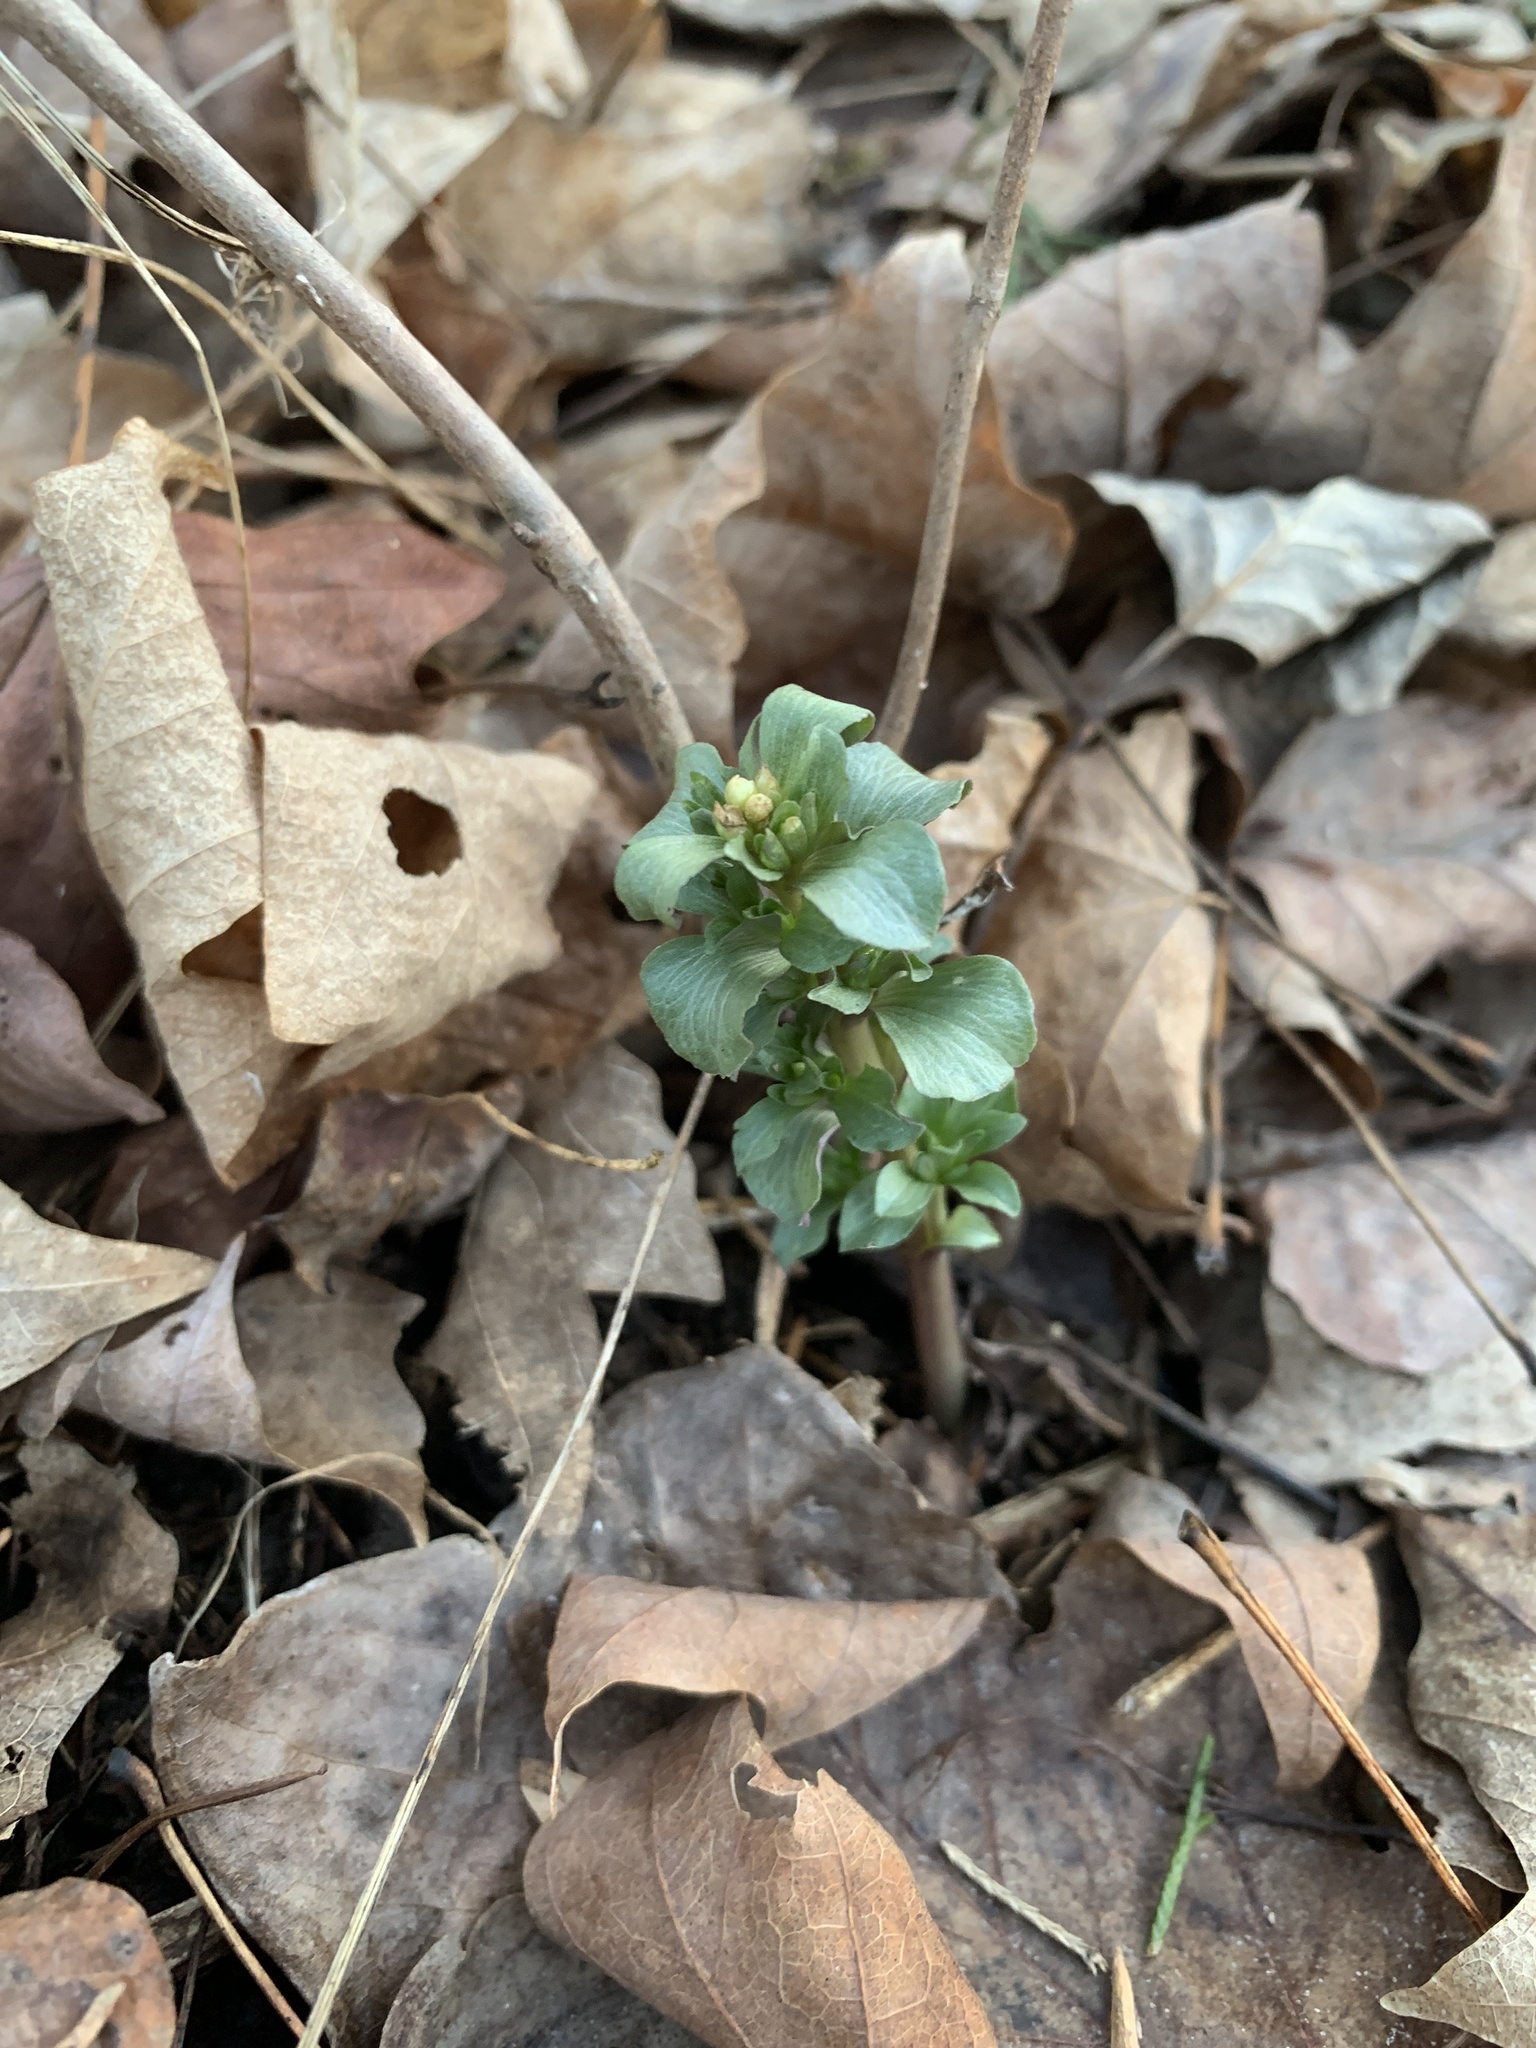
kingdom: Plantae
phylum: Tracheophyta
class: Magnoliopsida
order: Gentianales
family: Gentianaceae
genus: Obolaria
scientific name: Obolaria virginica
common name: Pennywort
